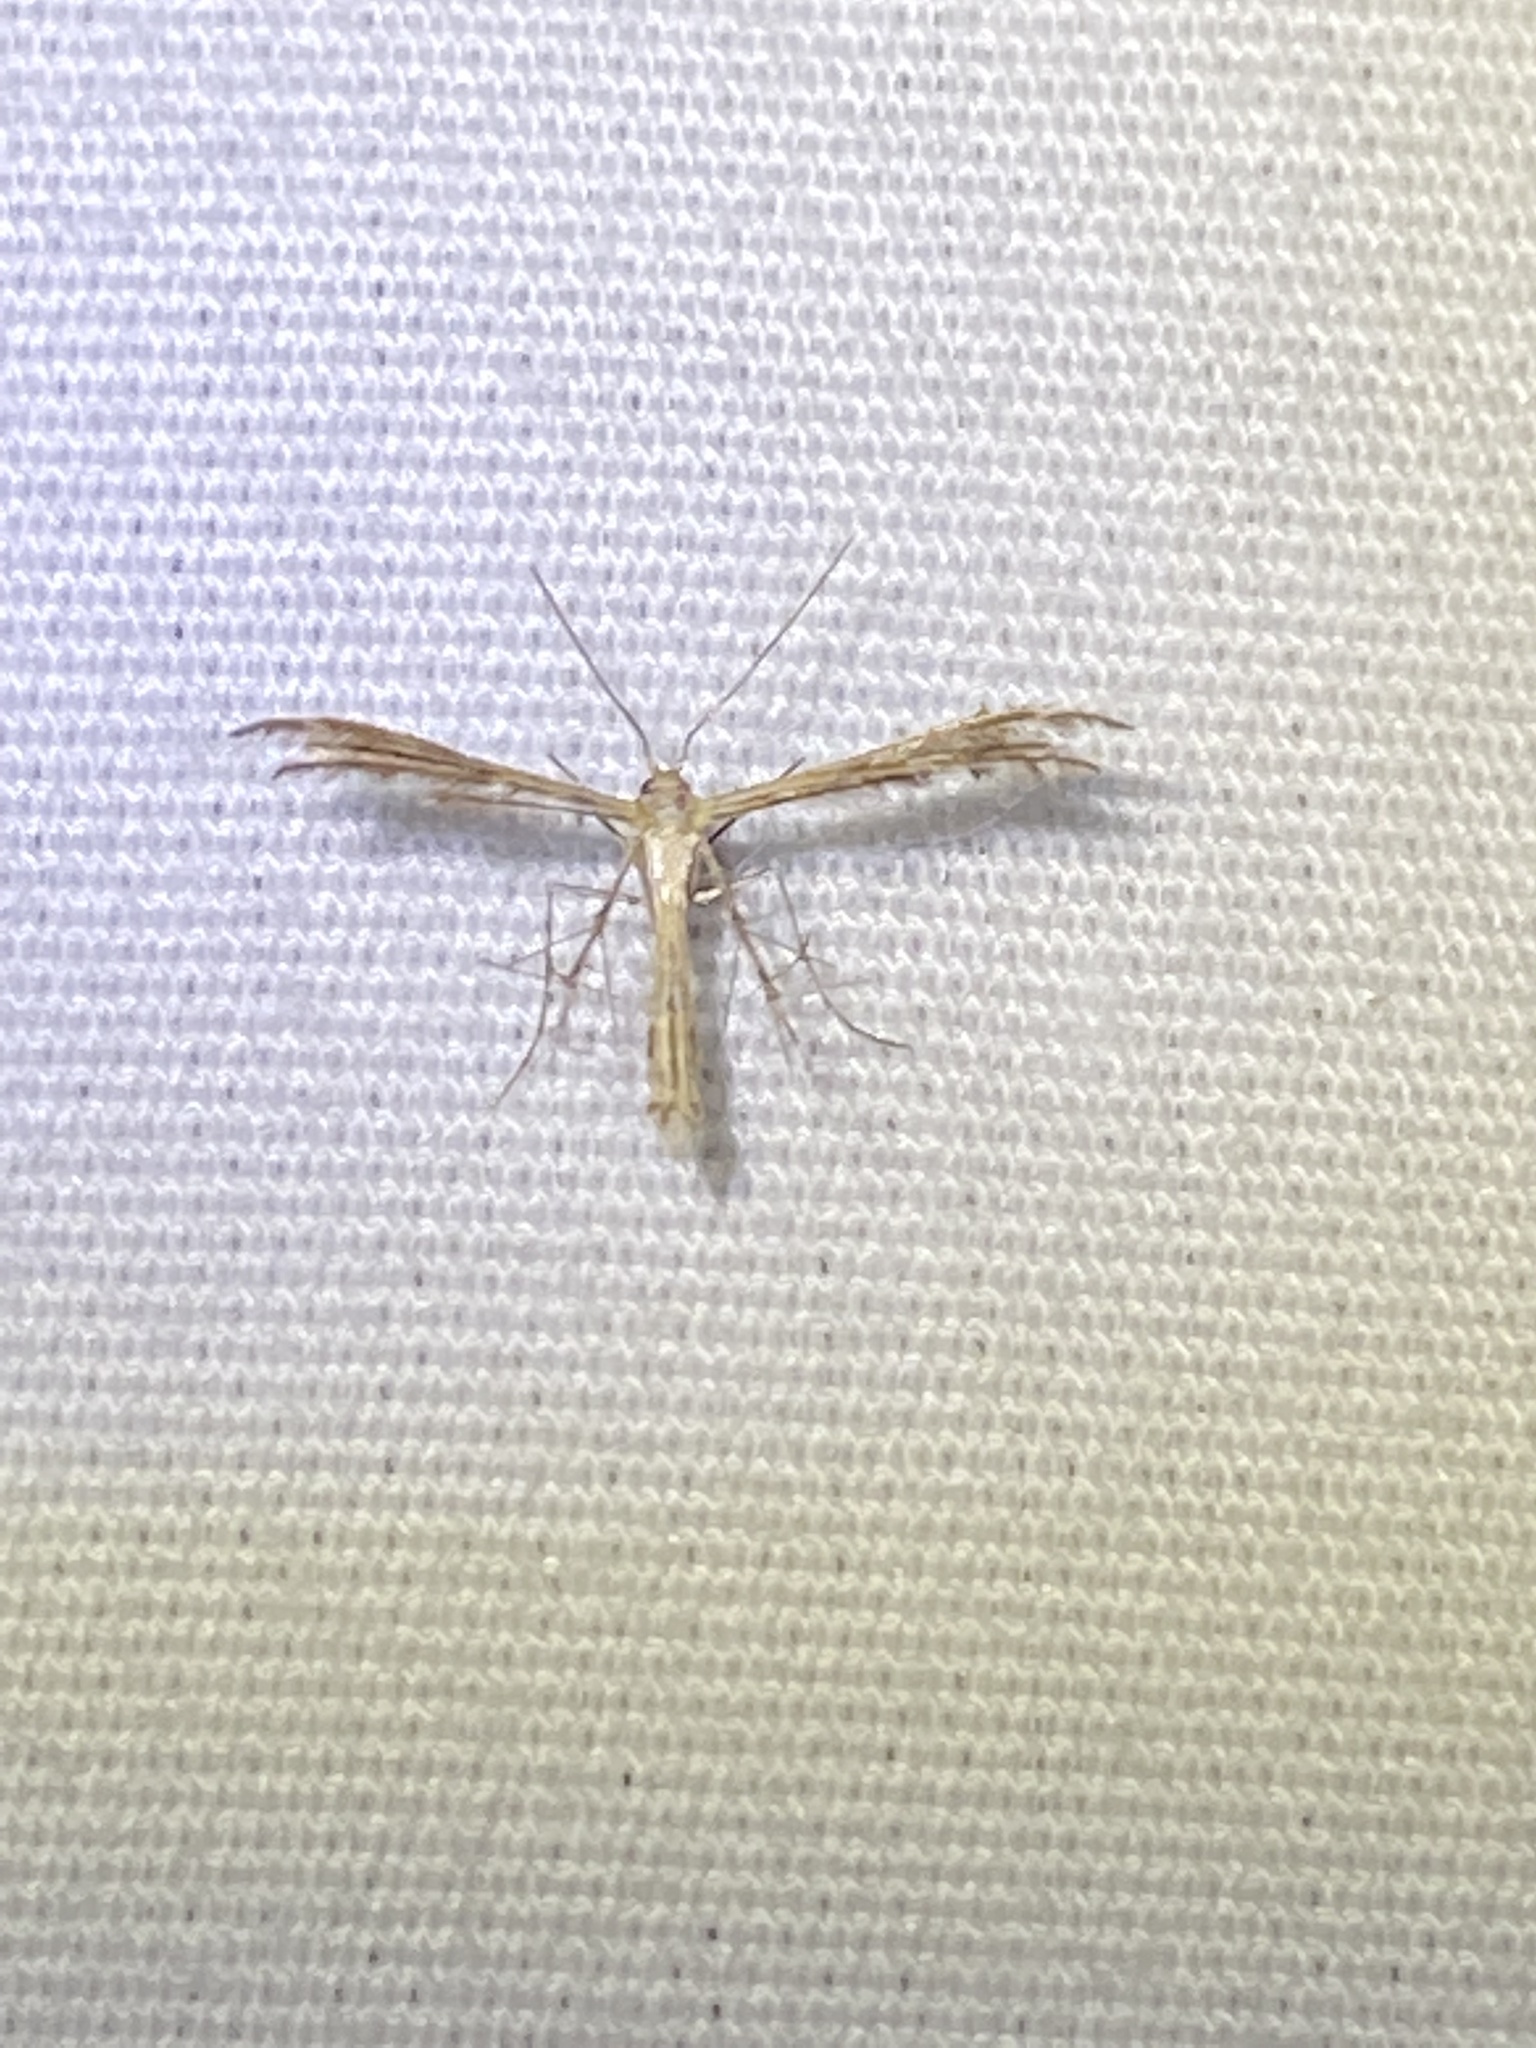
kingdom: Animalia
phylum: Arthropoda
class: Insecta
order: Lepidoptera
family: Pterophoridae
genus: Buckleria
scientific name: Buckleria parvulus
